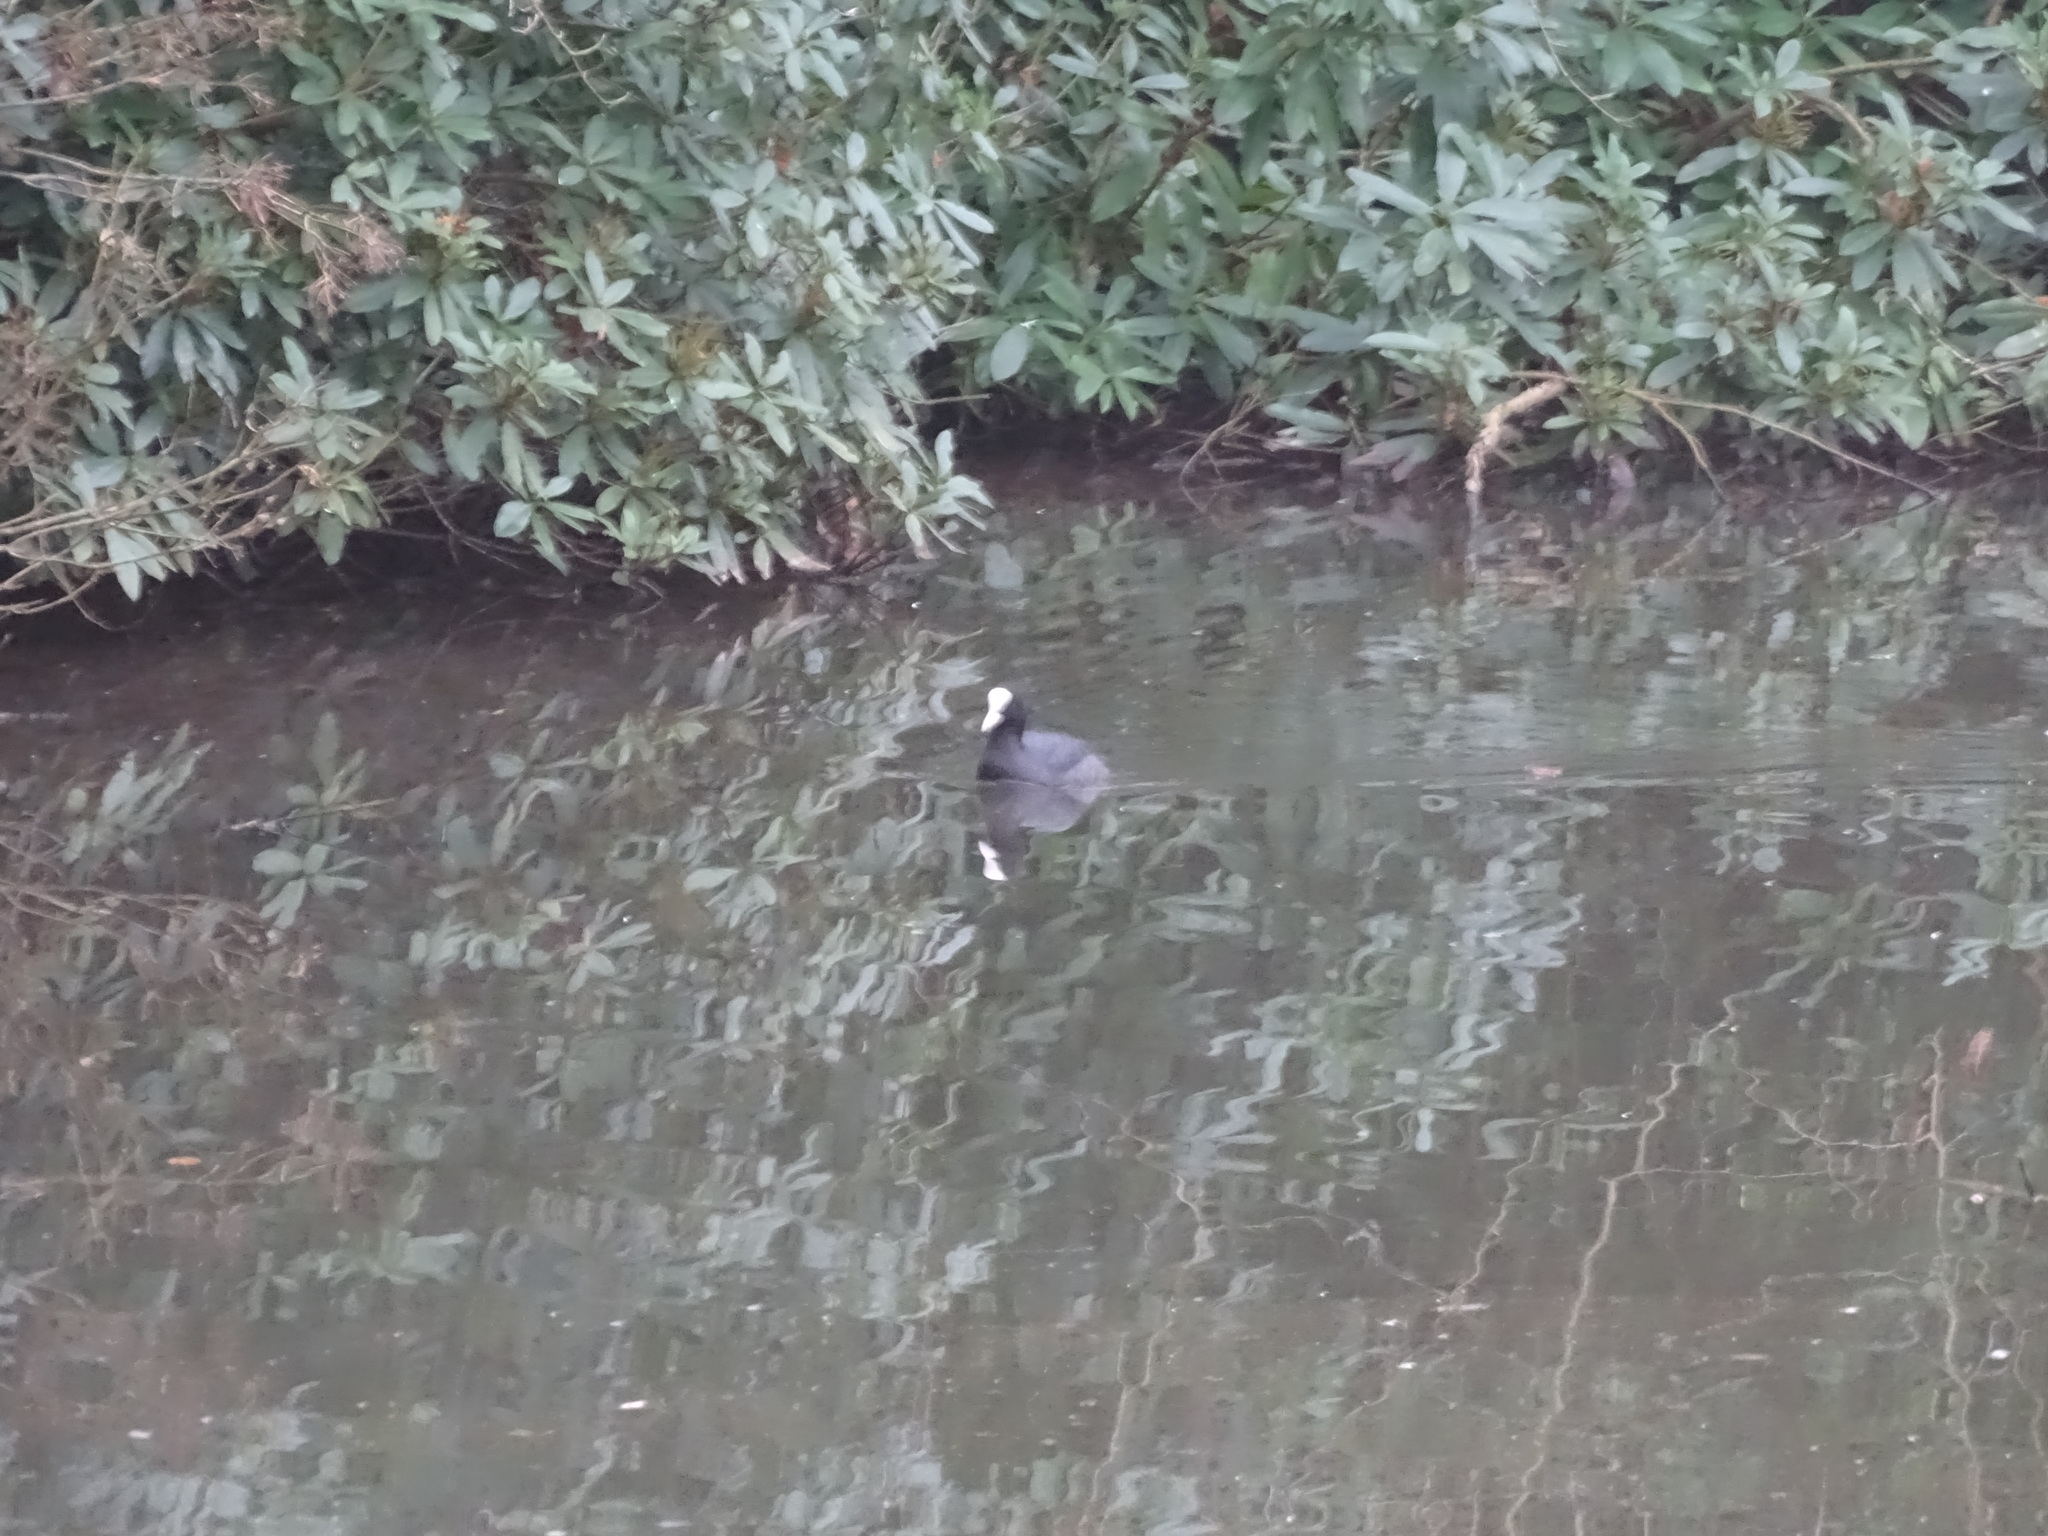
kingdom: Animalia
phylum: Chordata
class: Aves
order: Gruiformes
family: Rallidae
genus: Fulica
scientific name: Fulica atra
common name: Eurasian coot
